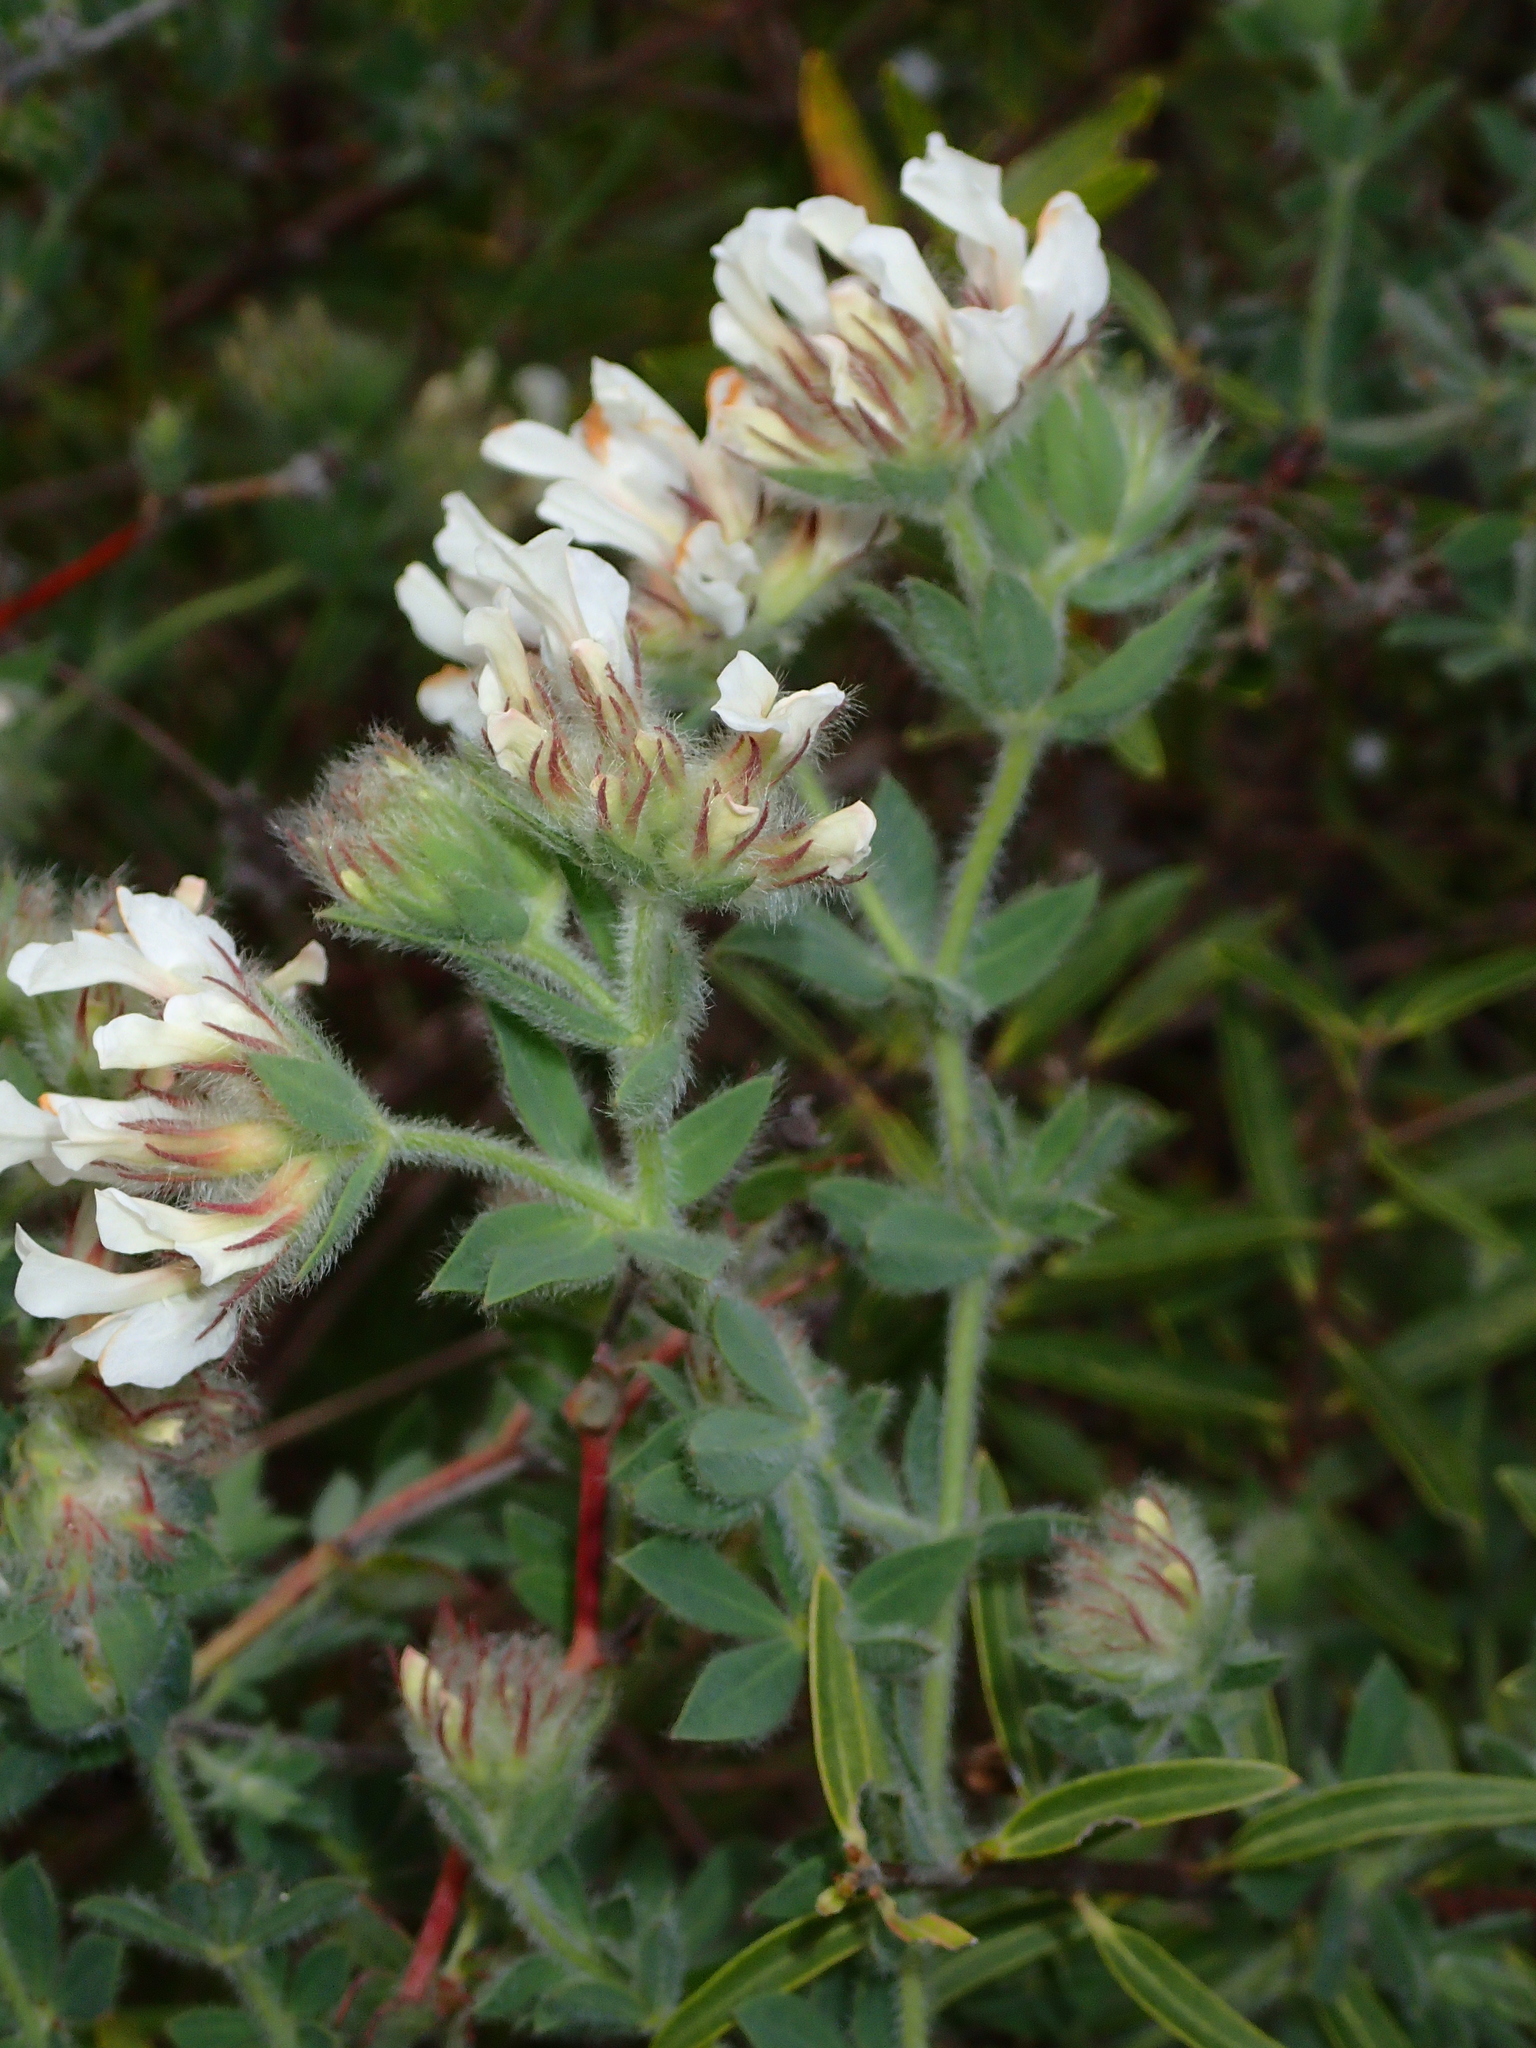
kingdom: Plantae
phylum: Tracheophyta
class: Magnoliopsida
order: Fabales
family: Fabaceae
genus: Lotus
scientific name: Lotus hirsutus
